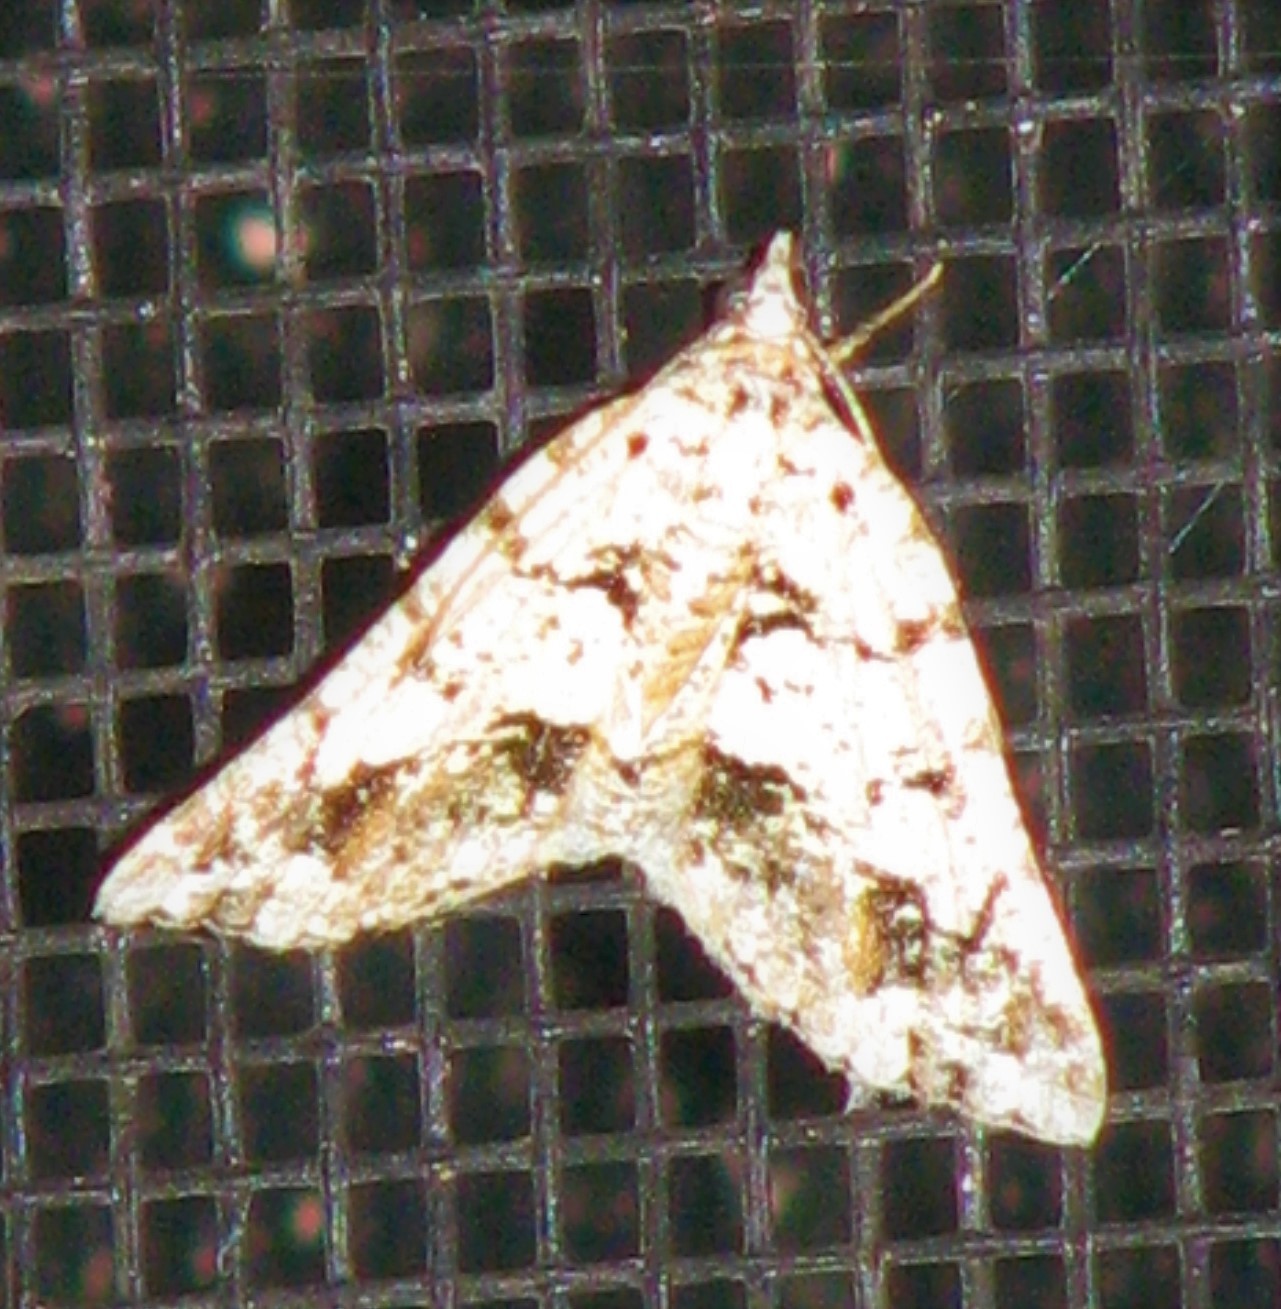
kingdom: Animalia
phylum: Arthropoda
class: Insecta
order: Lepidoptera
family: Geometridae
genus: Macaria
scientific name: Macaria graphidaria
